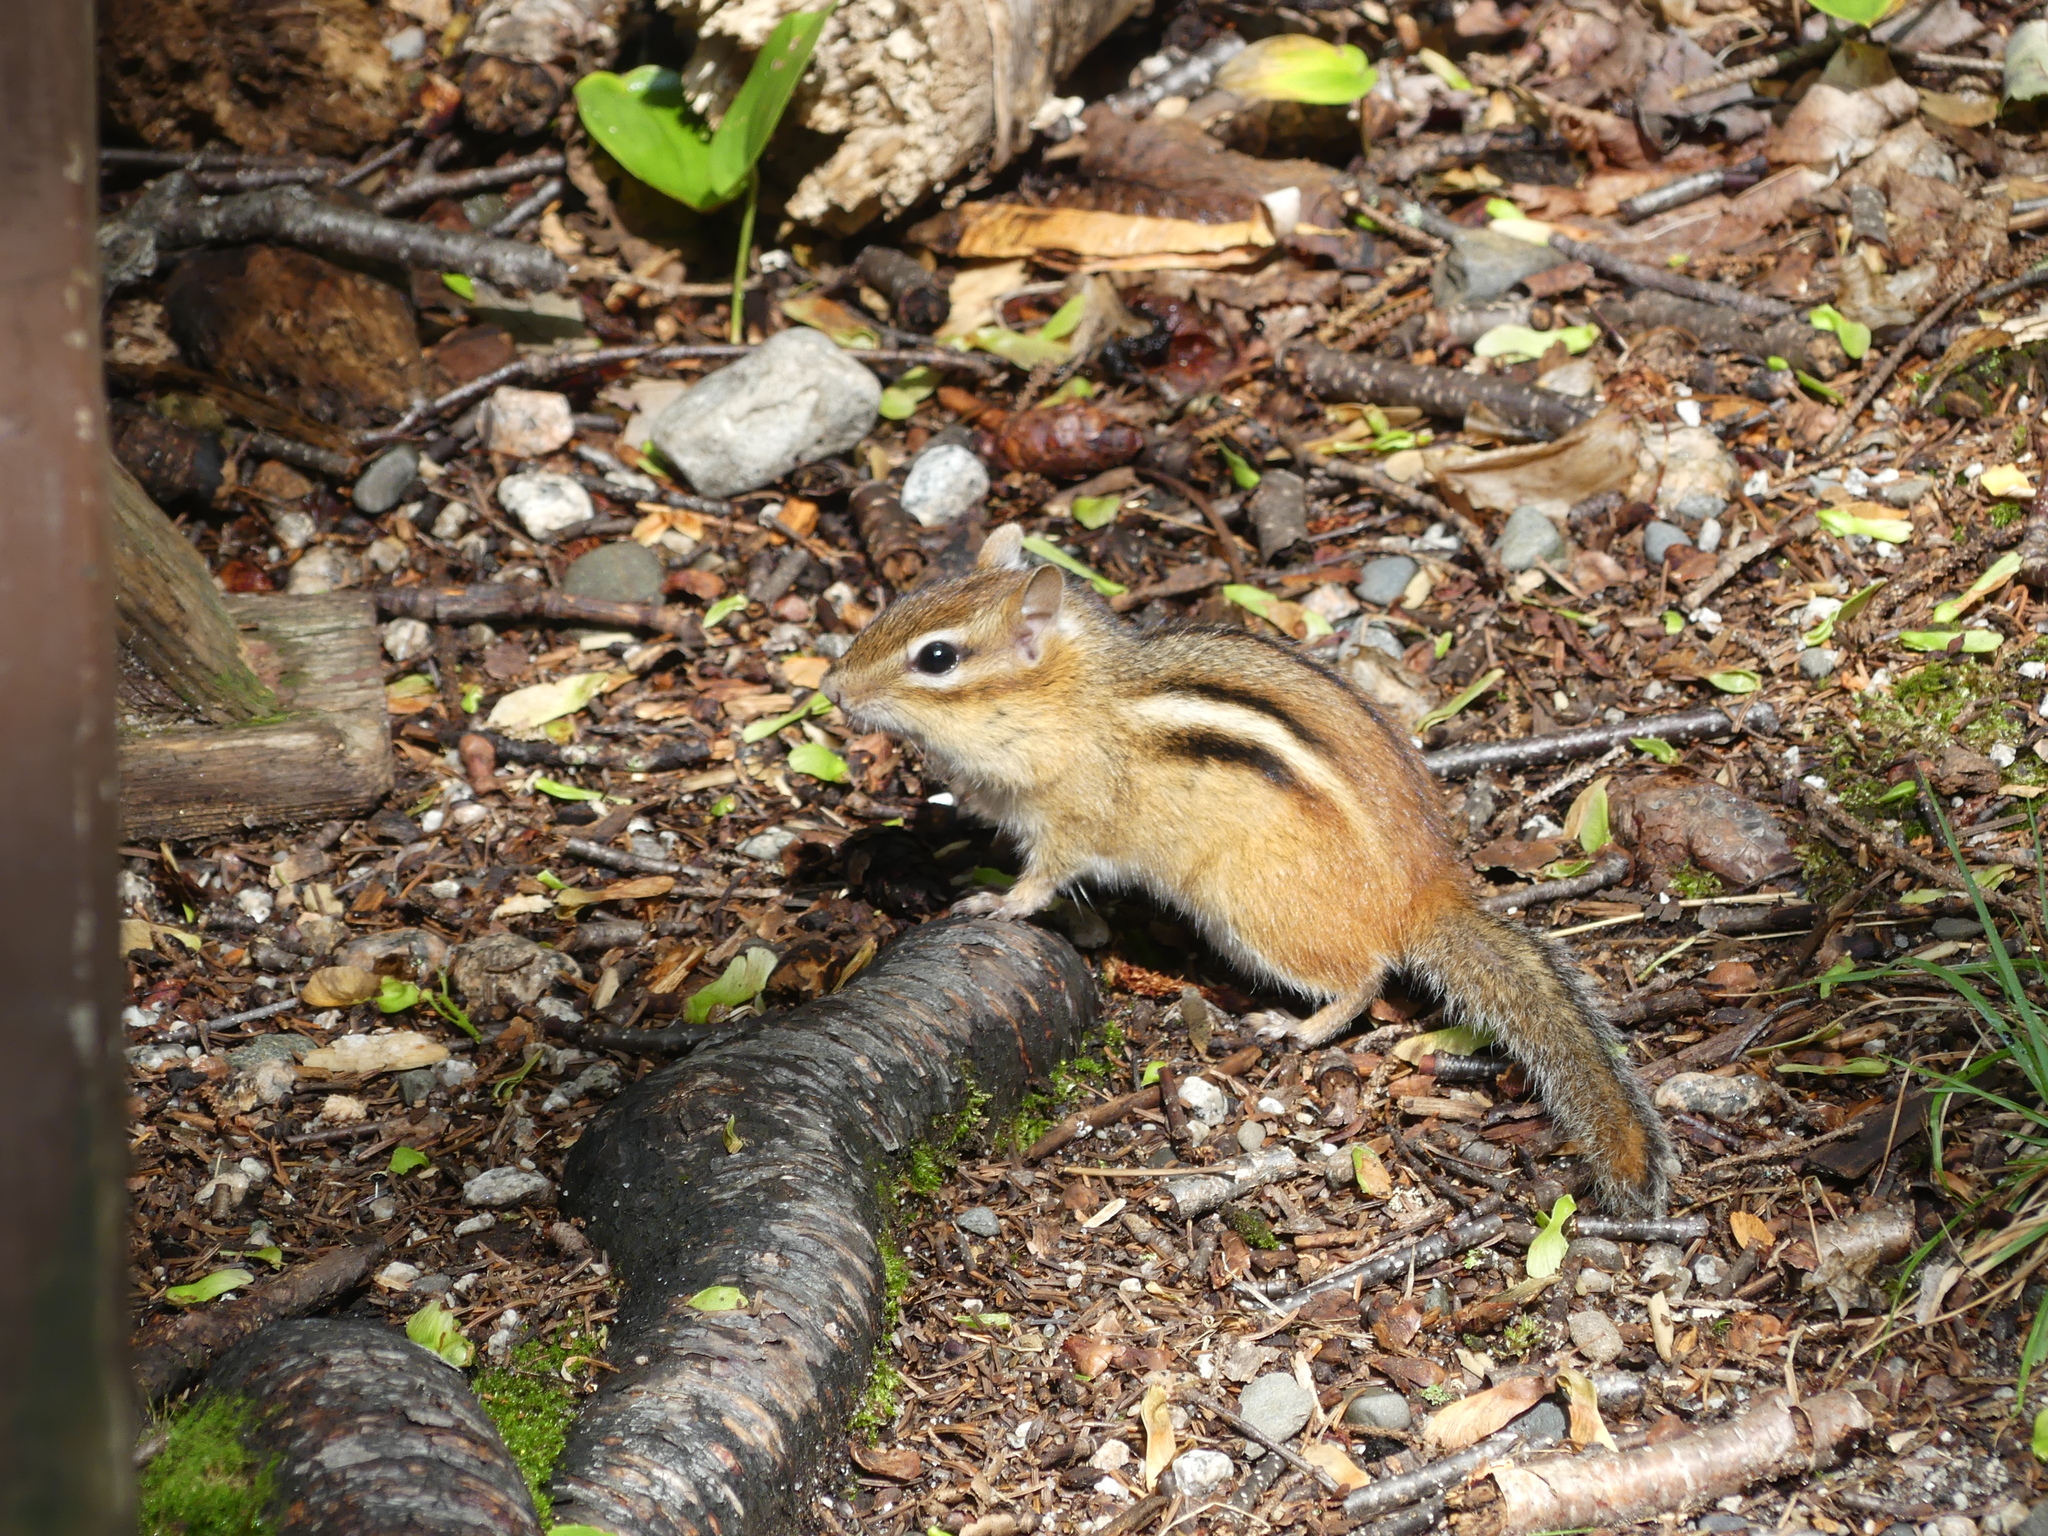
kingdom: Animalia
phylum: Chordata
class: Mammalia
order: Rodentia
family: Sciuridae
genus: Tamias
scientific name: Tamias striatus
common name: Eastern chipmunk
